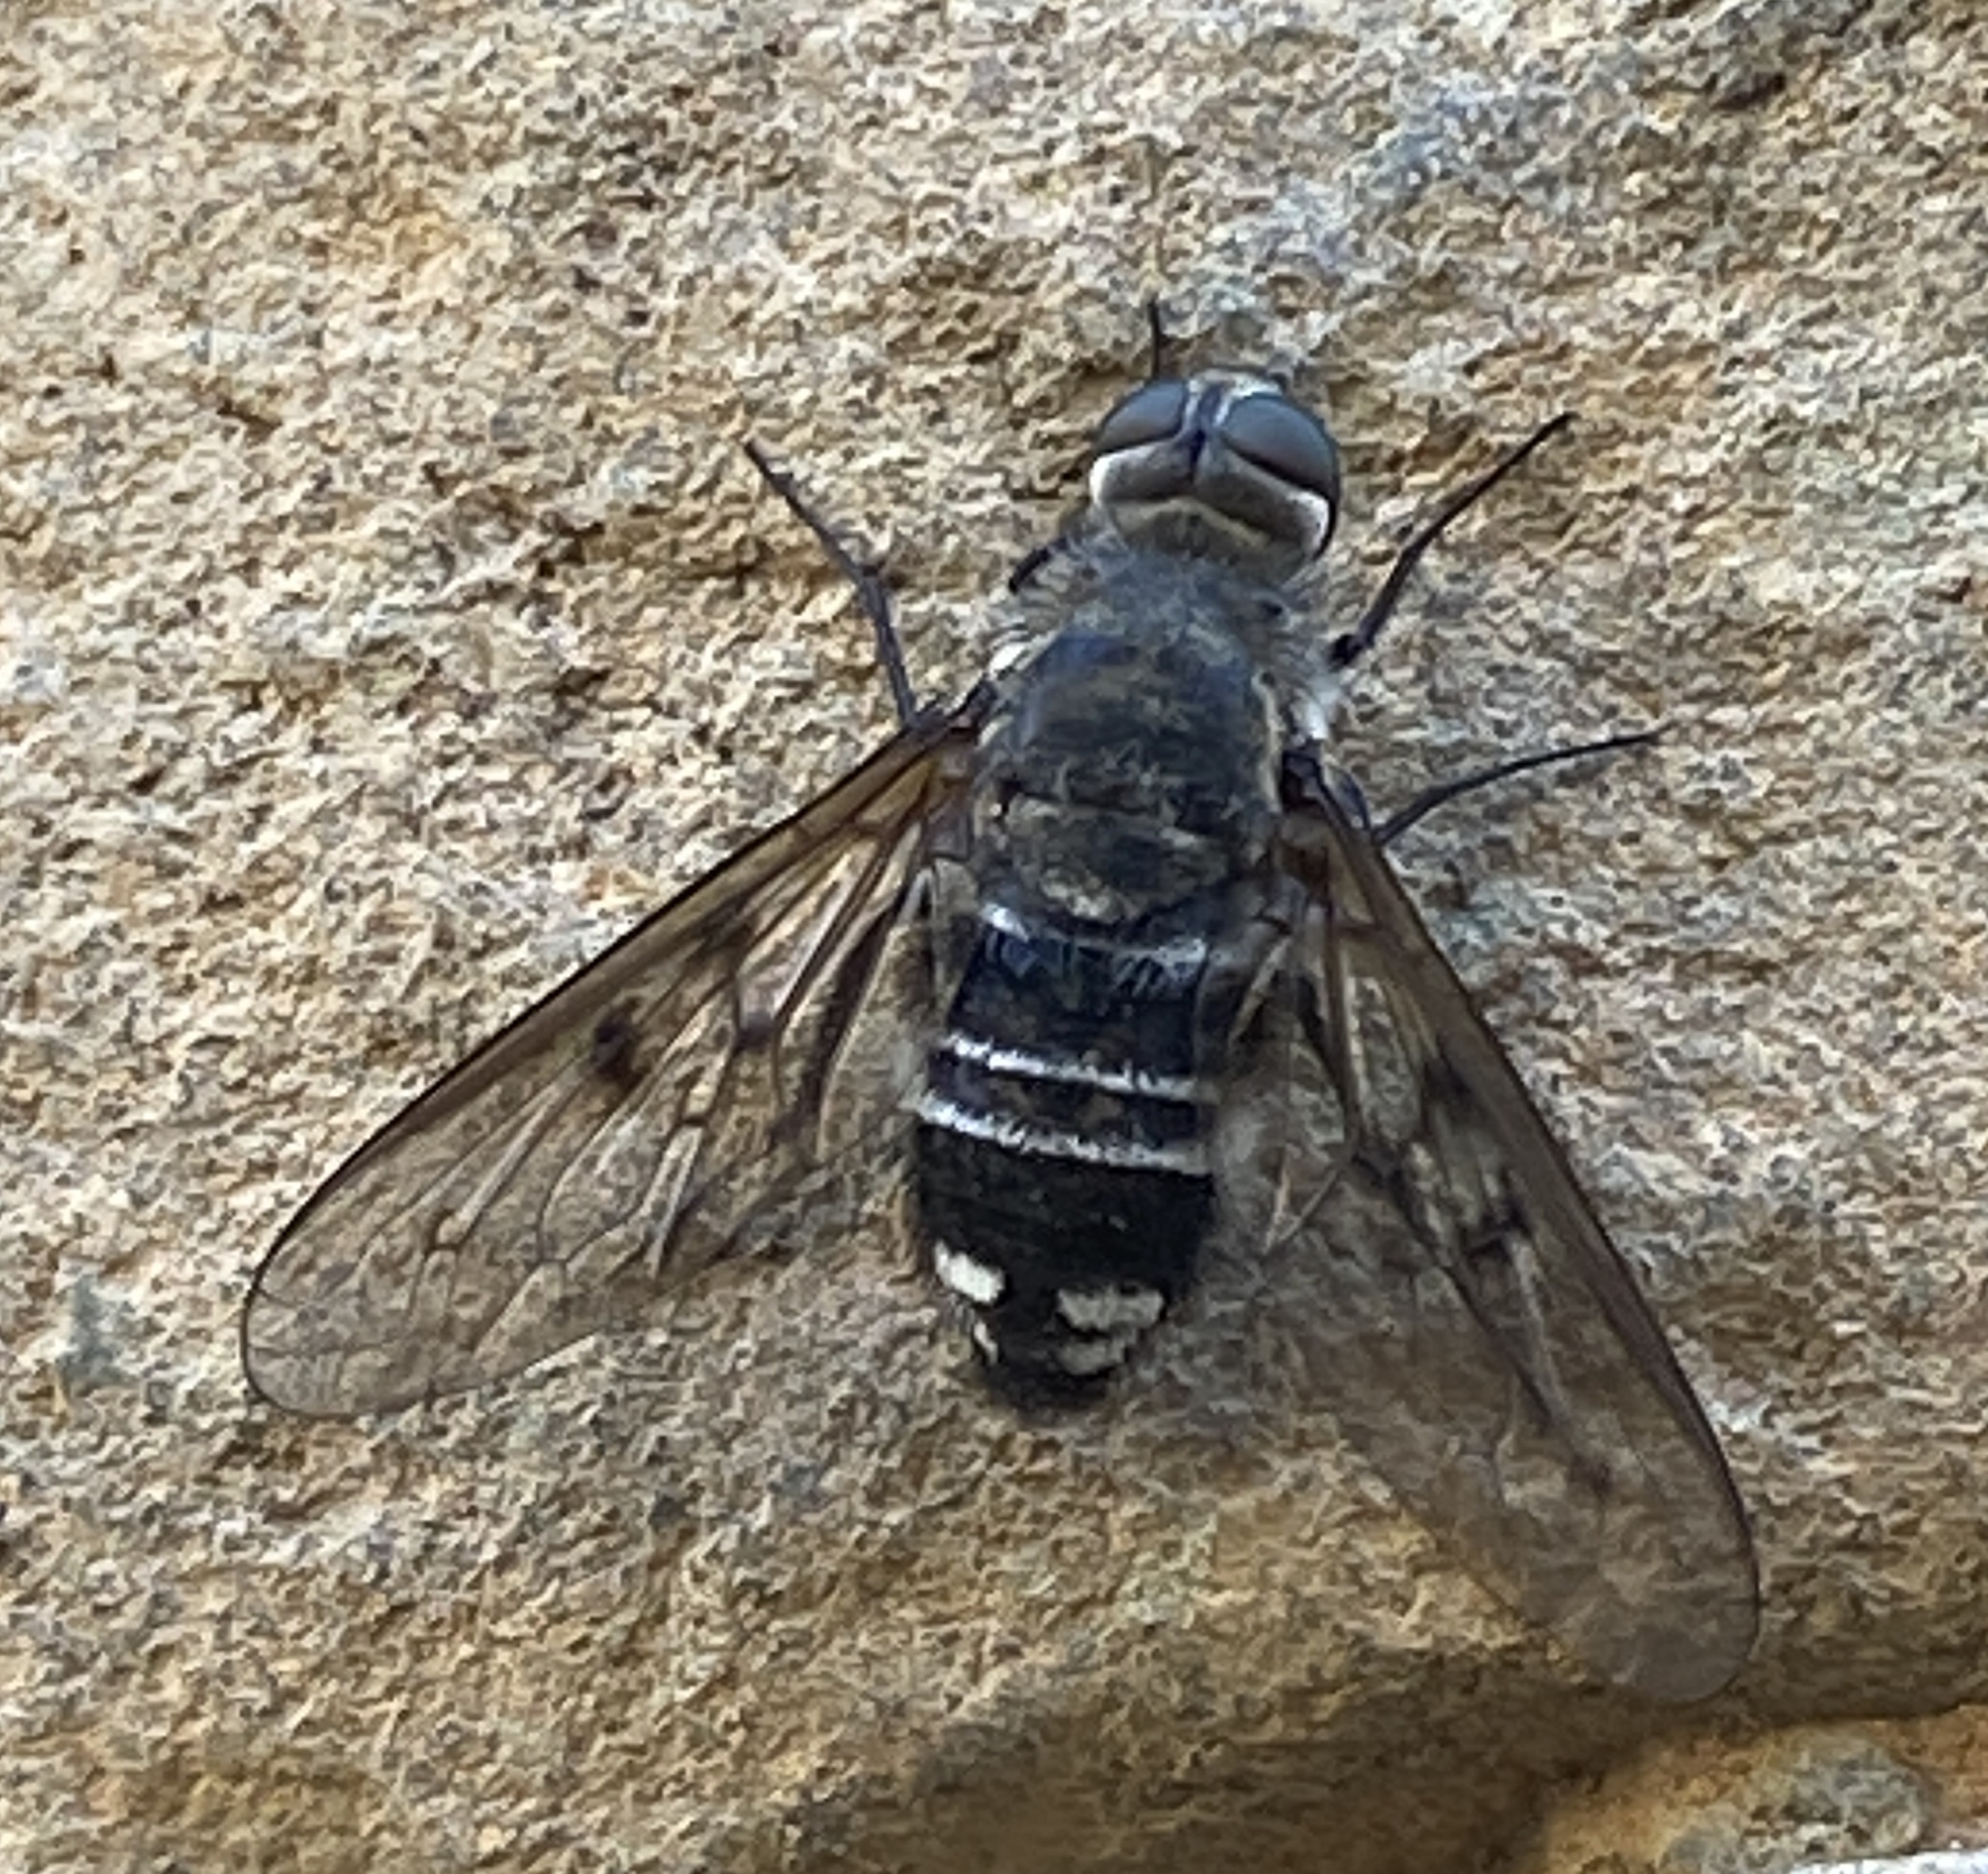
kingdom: Animalia
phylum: Arthropoda
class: Insecta
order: Diptera
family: Bombyliidae
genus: Spogostylum
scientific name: Spogostylum tripunctatum
